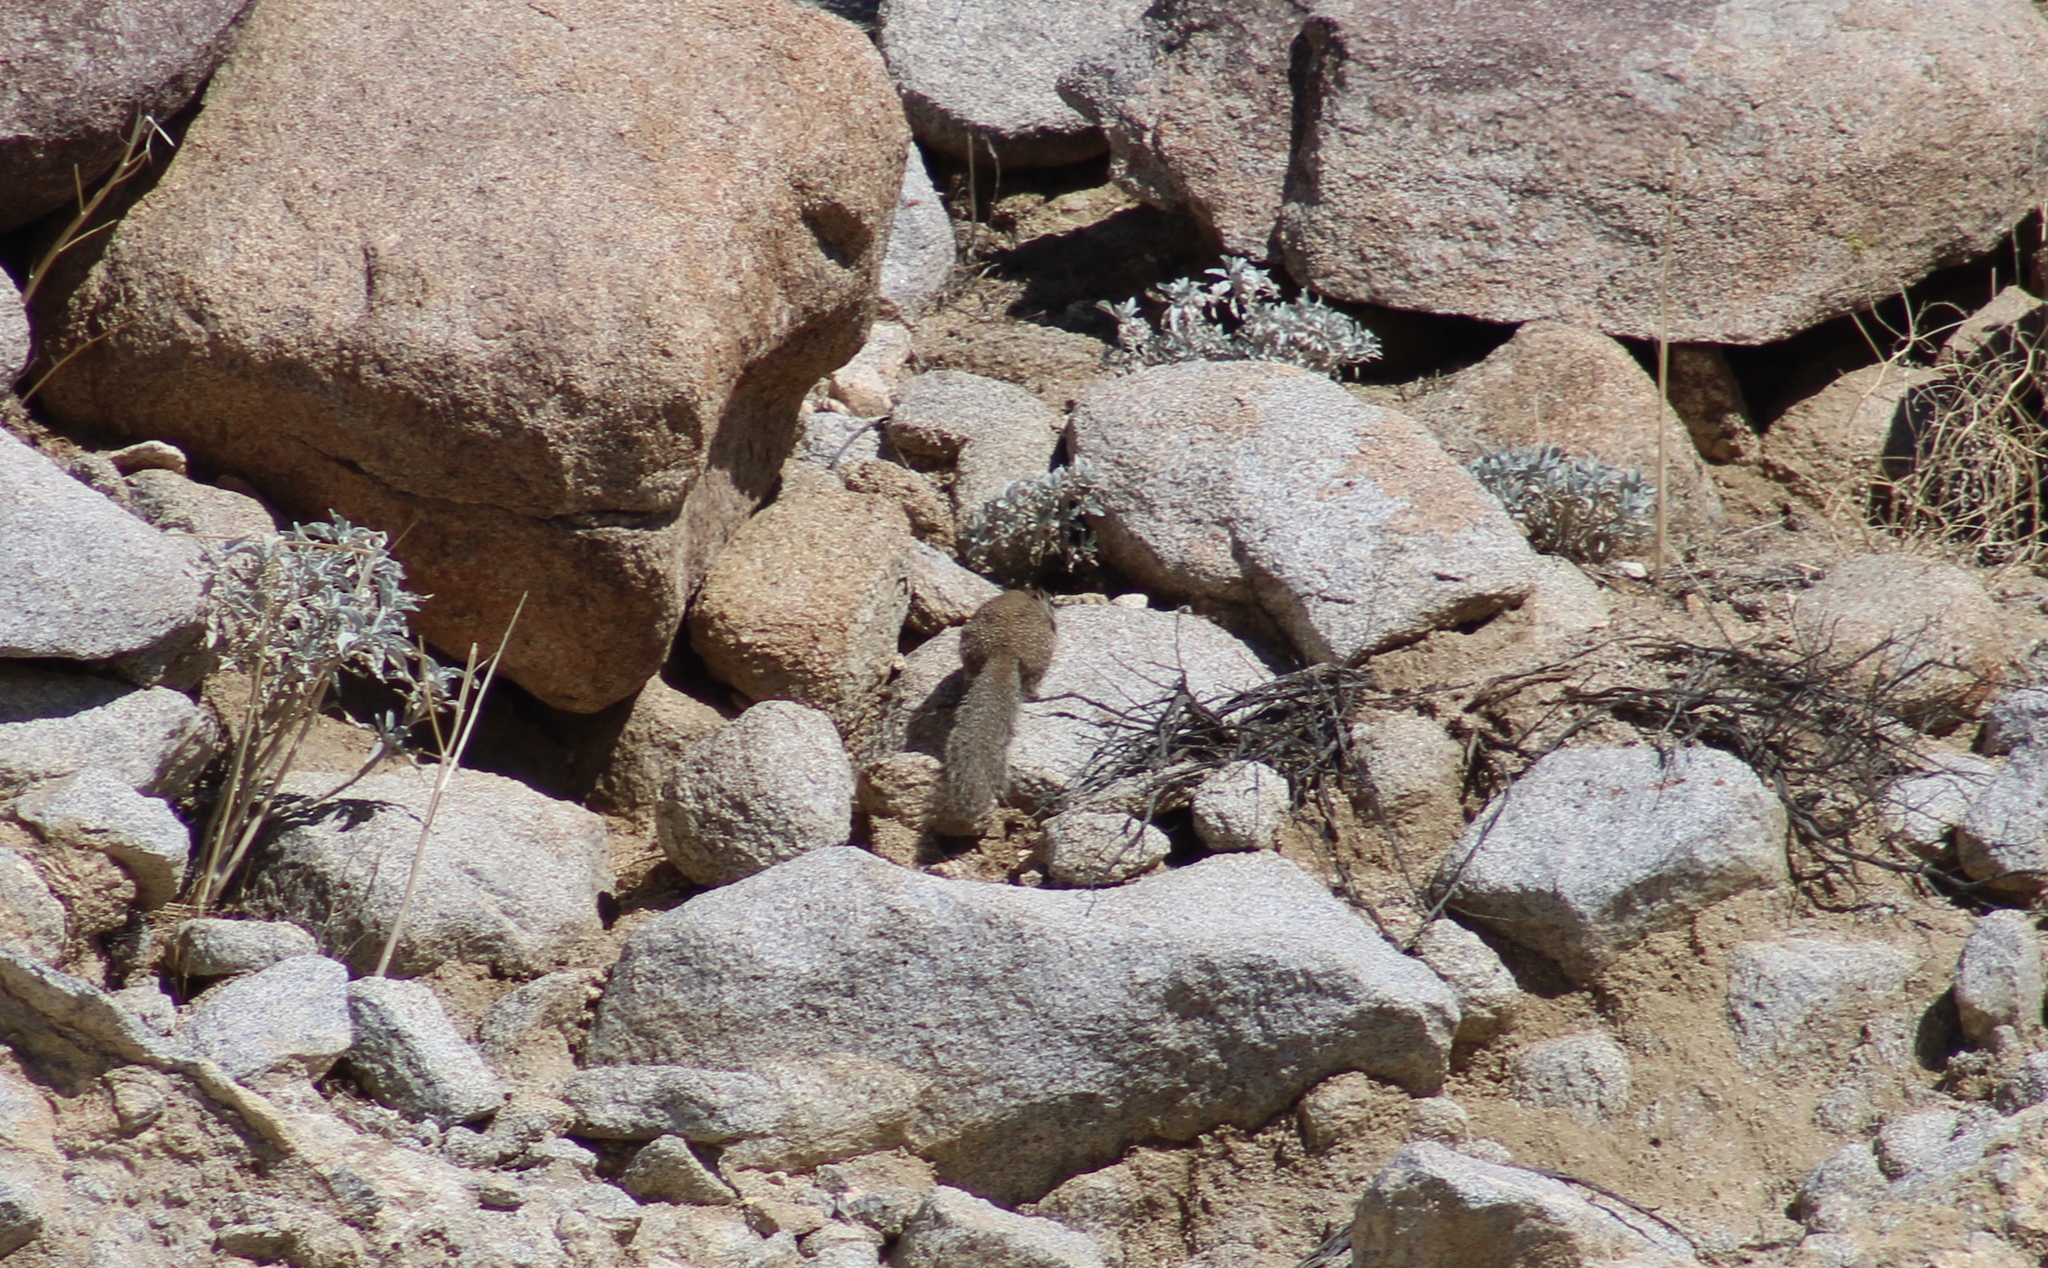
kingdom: Animalia
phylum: Chordata
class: Mammalia
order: Rodentia
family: Sciuridae
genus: Otospermophilus
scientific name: Otospermophilus beecheyi
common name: California ground squirrel
